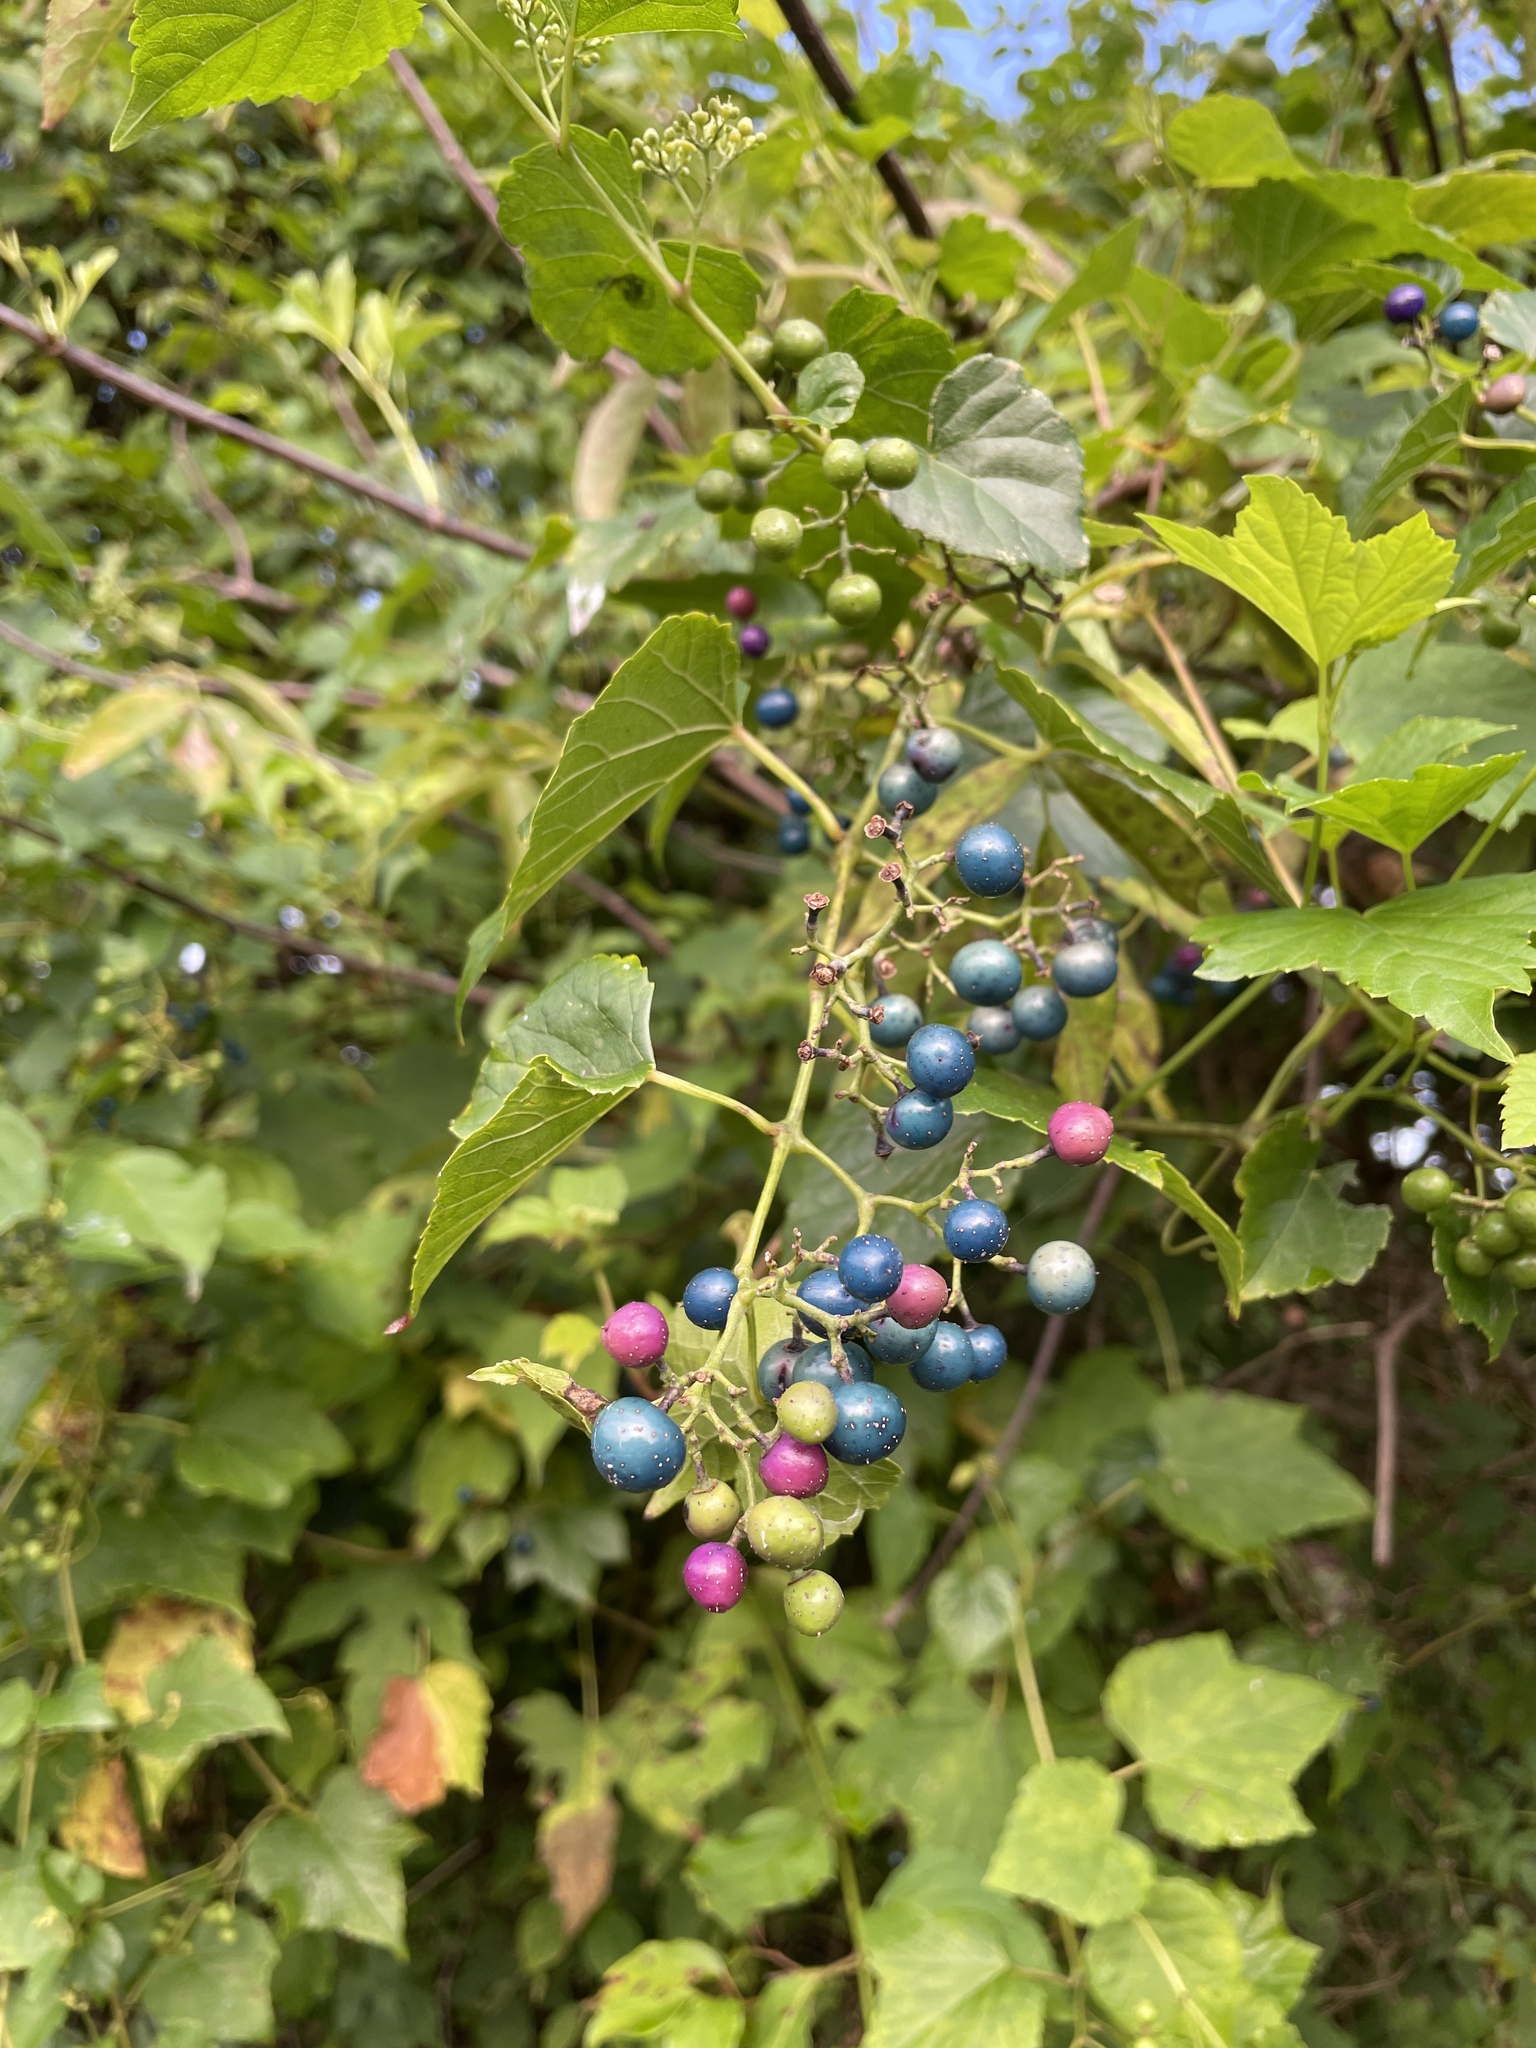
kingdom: Plantae
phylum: Tracheophyta
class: Magnoliopsida
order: Vitales
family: Vitaceae
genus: Ampelopsis
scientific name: Ampelopsis glandulosa
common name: Amur peppervine
